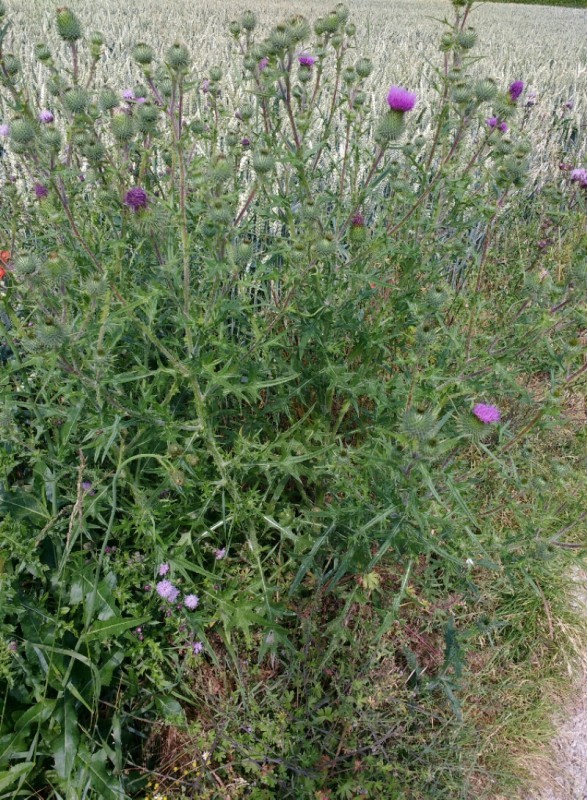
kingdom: Plantae
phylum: Tracheophyta
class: Magnoliopsida
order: Asterales
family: Asteraceae
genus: Cirsium
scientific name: Cirsium vulgare
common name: Bull thistle
